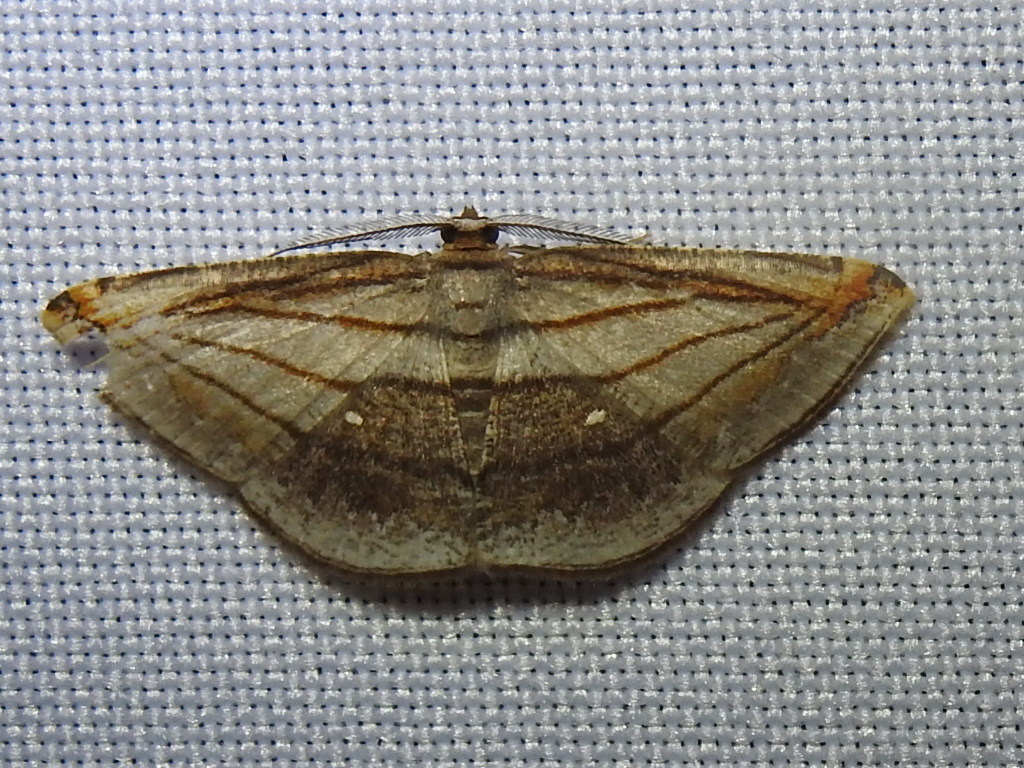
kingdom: Animalia
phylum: Arthropoda
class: Insecta
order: Lepidoptera
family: Geometridae
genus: Bagodares
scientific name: Bagodares prosa
